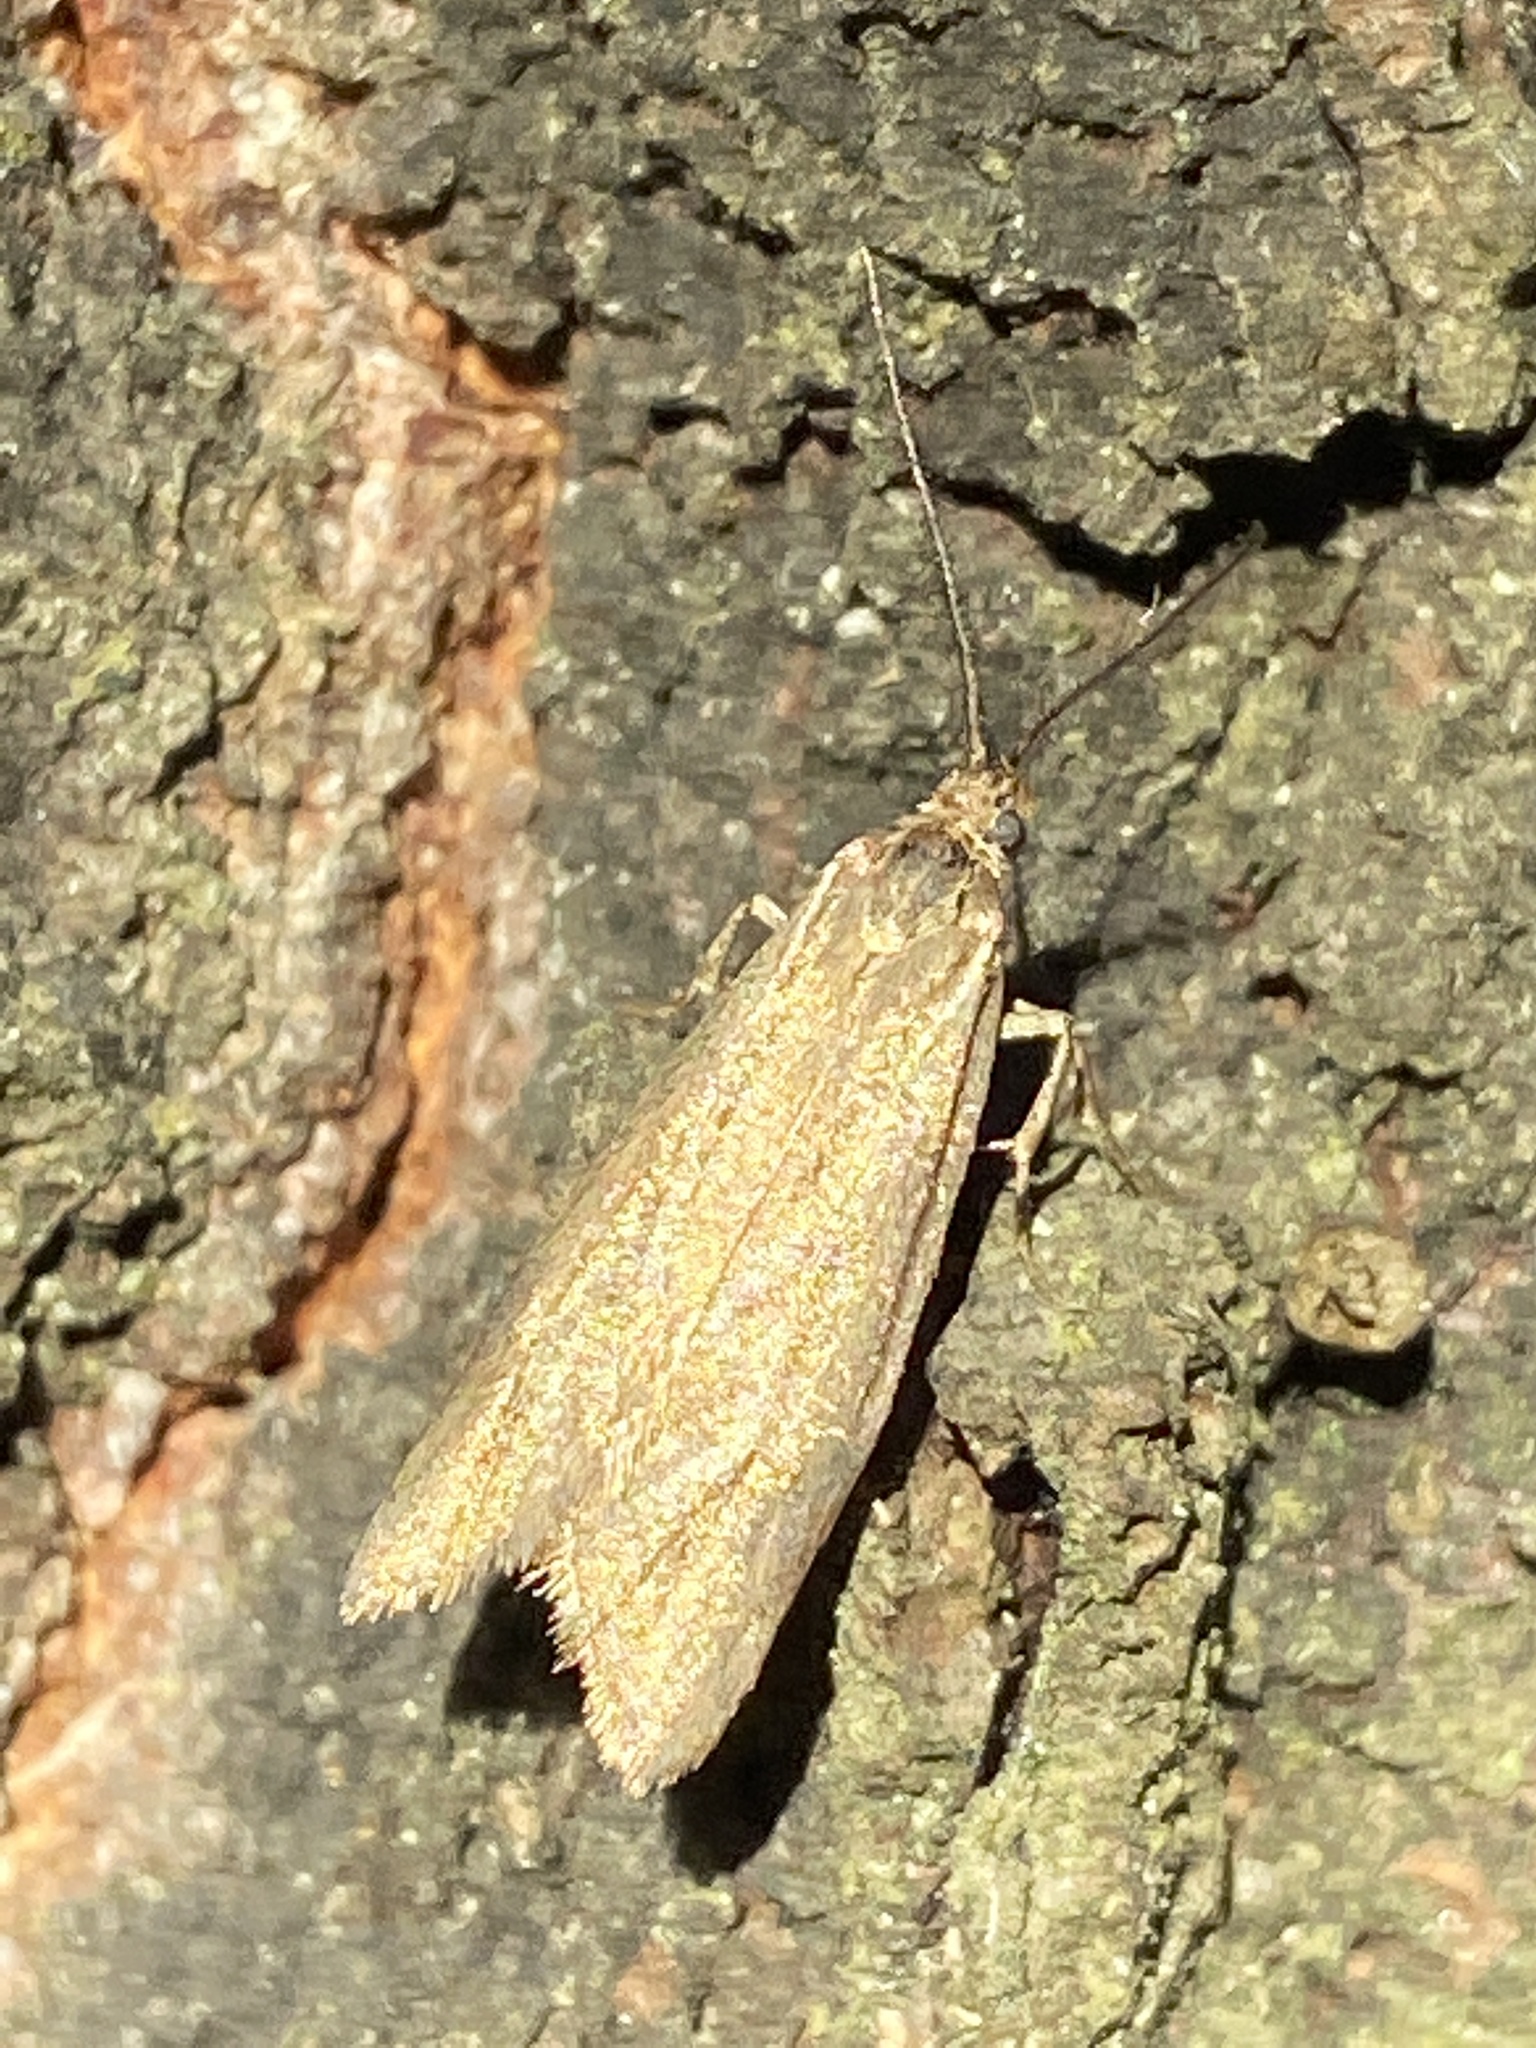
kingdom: Animalia
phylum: Arthropoda
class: Insecta
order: Lepidoptera
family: Lypusidae
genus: Diurnea
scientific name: Diurnea lipsiella
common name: November tubic
